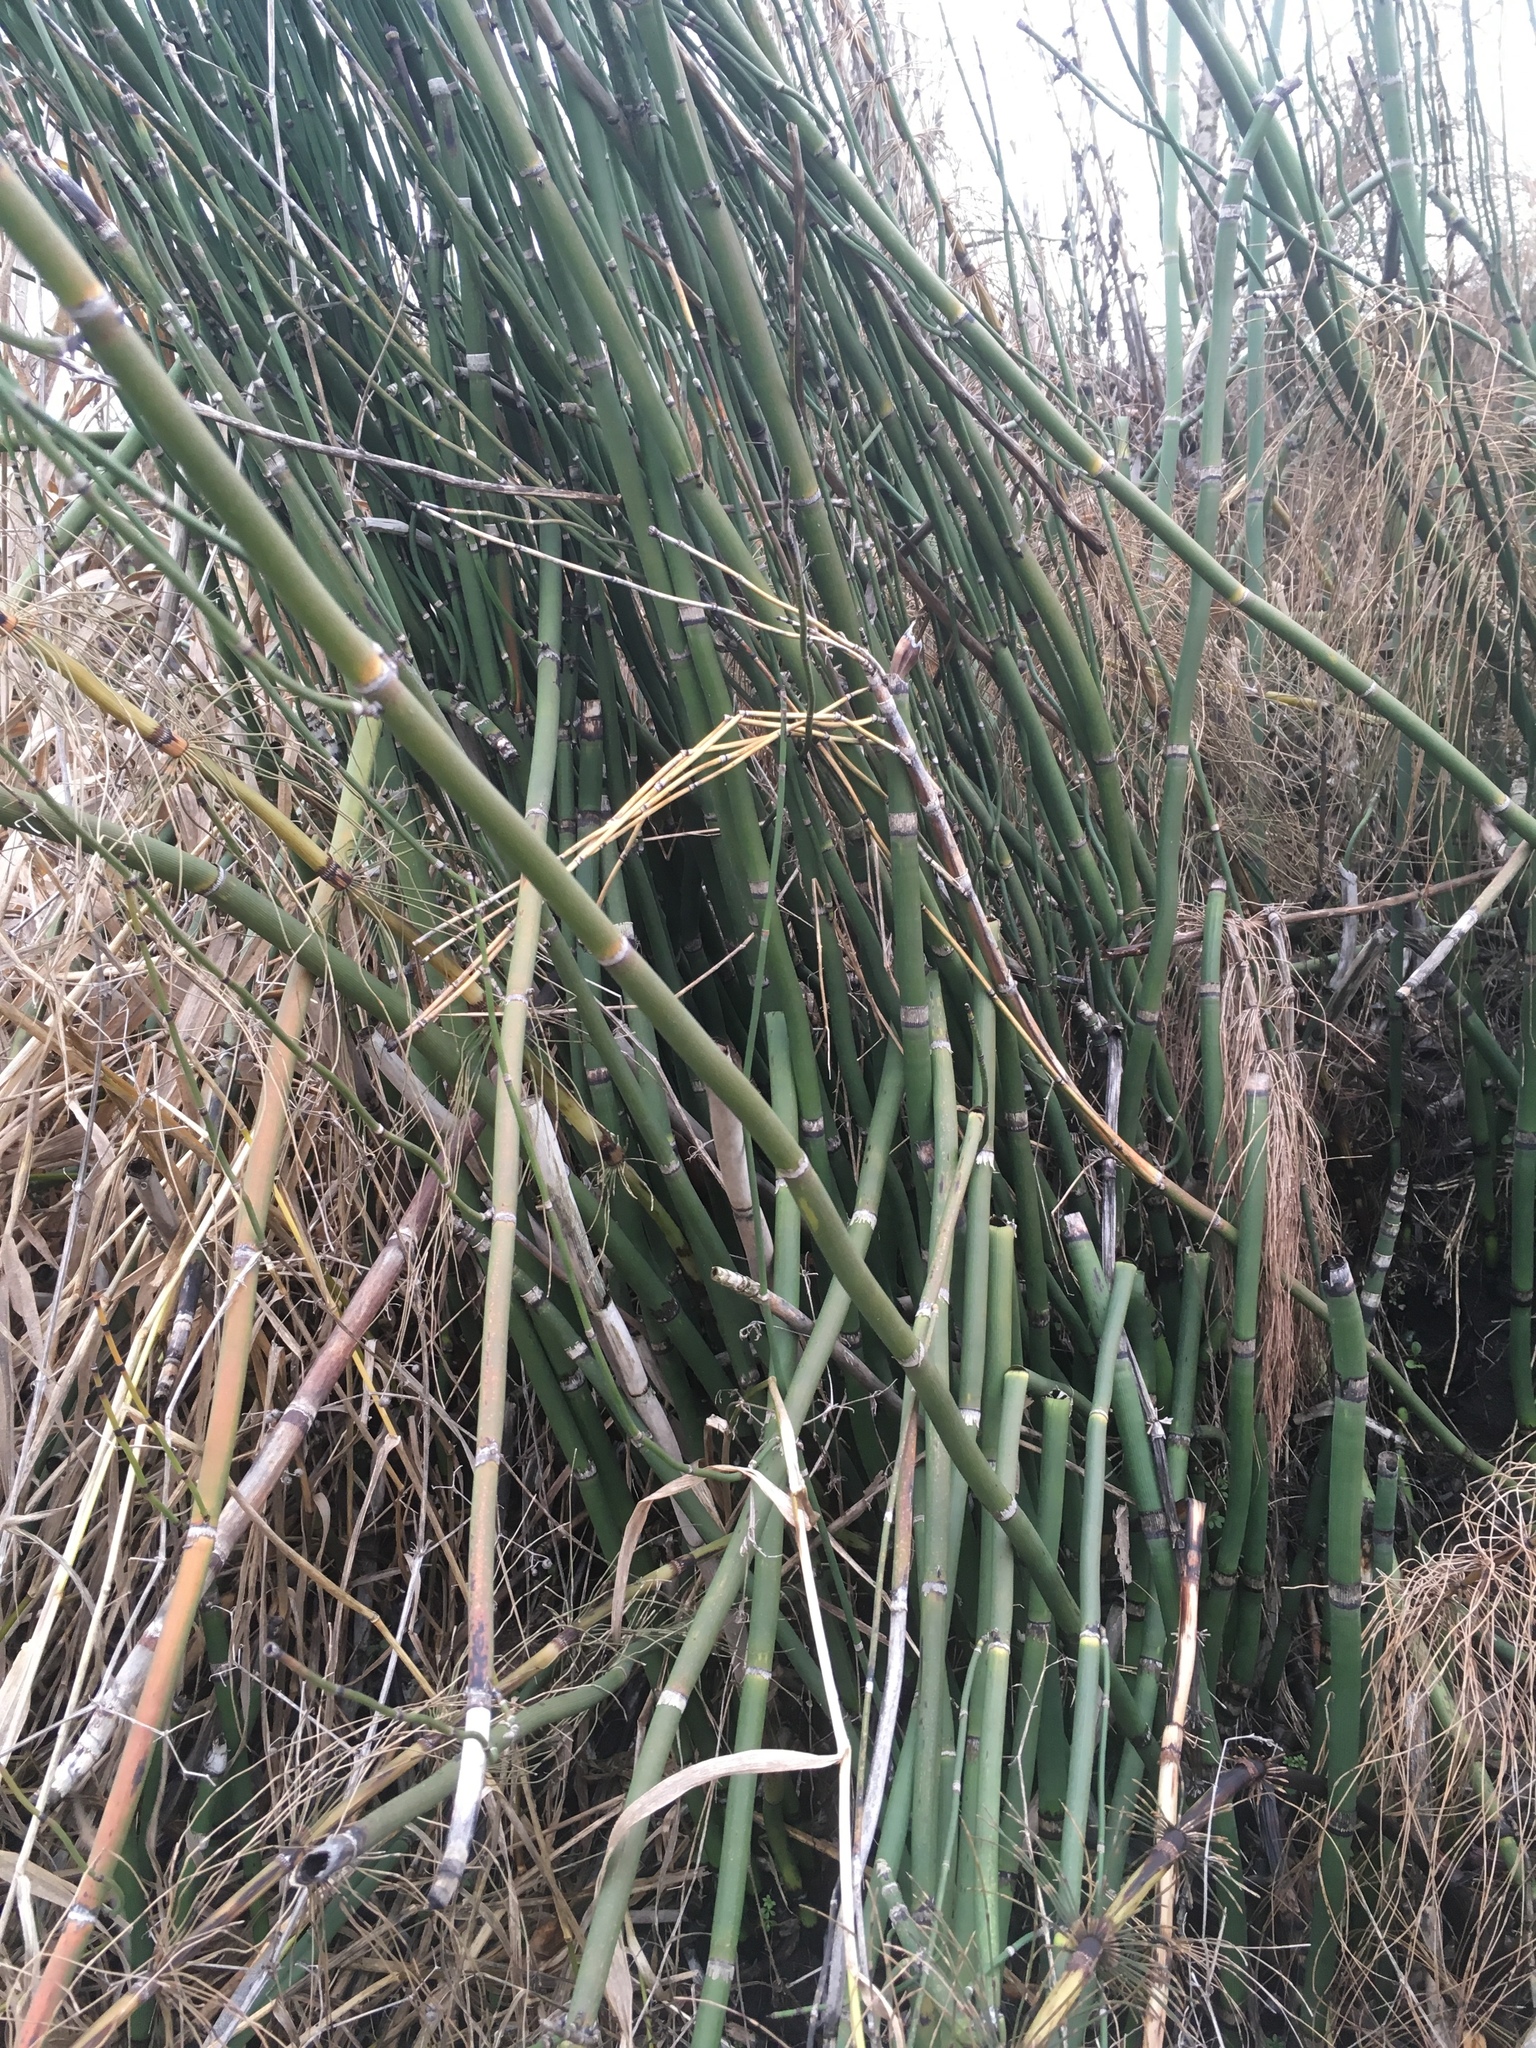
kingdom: Plantae
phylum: Tracheophyta
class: Polypodiopsida
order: Equisetales
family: Equisetaceae
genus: Equisetum
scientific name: Equisetum hyemale
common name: Rough horsetail
